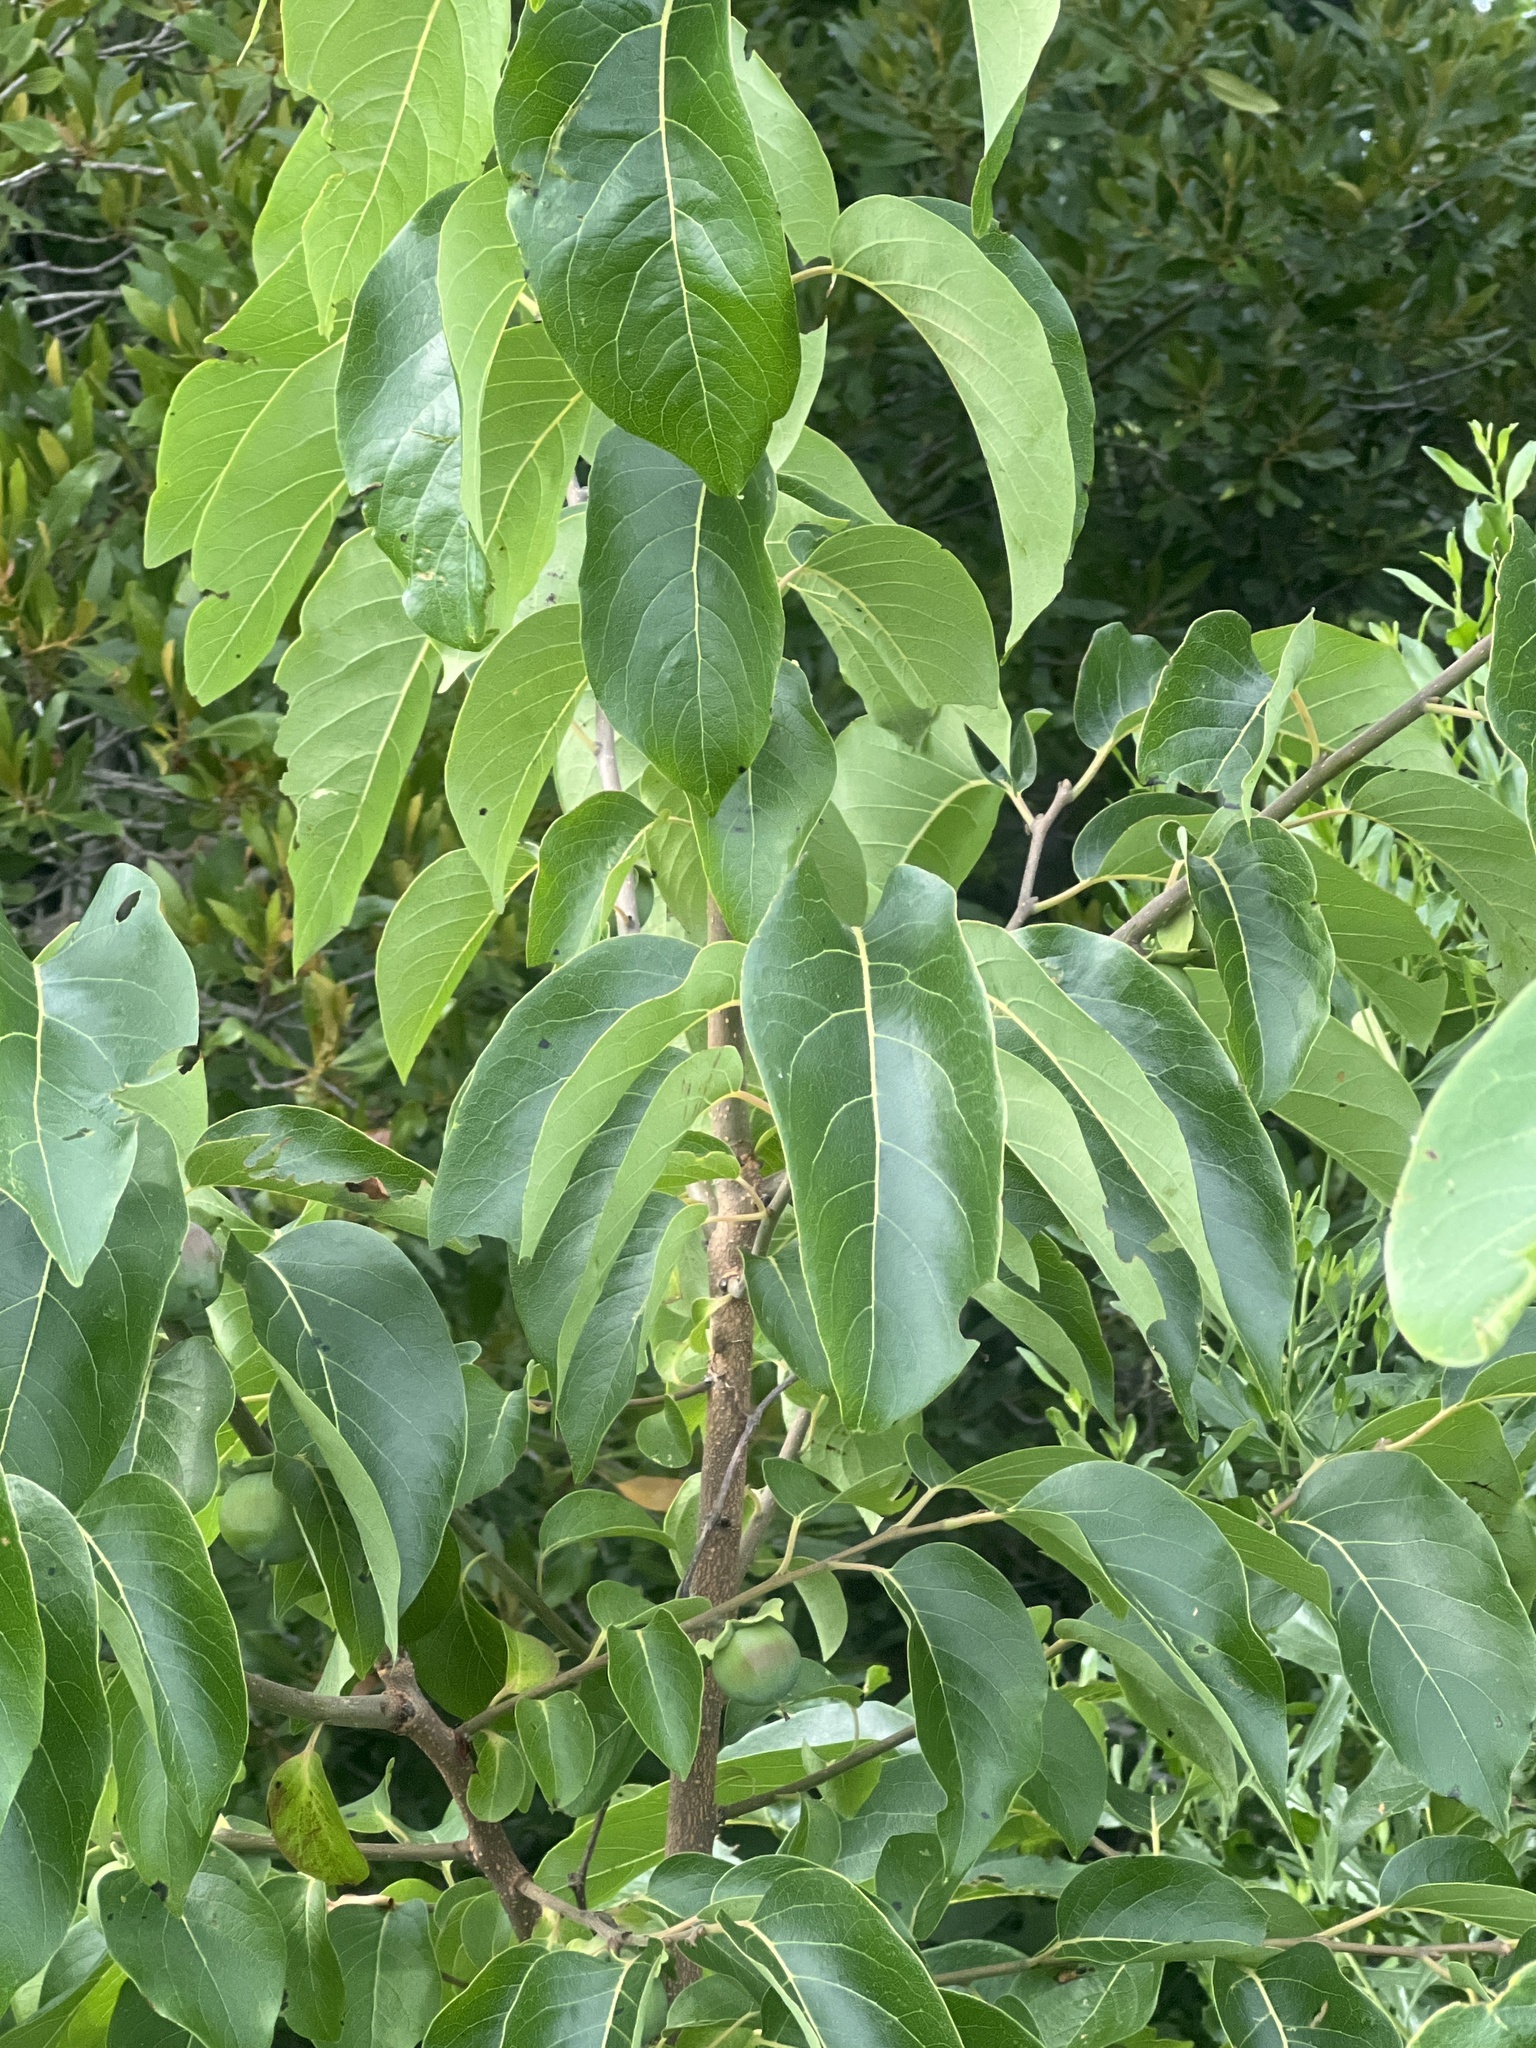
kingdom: Plantae
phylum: Tracheophyta
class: Magnoliopsida
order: Ericales
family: Ebenaceae
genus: Diospyros
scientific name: Diospyros virginiana
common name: Persimmon
